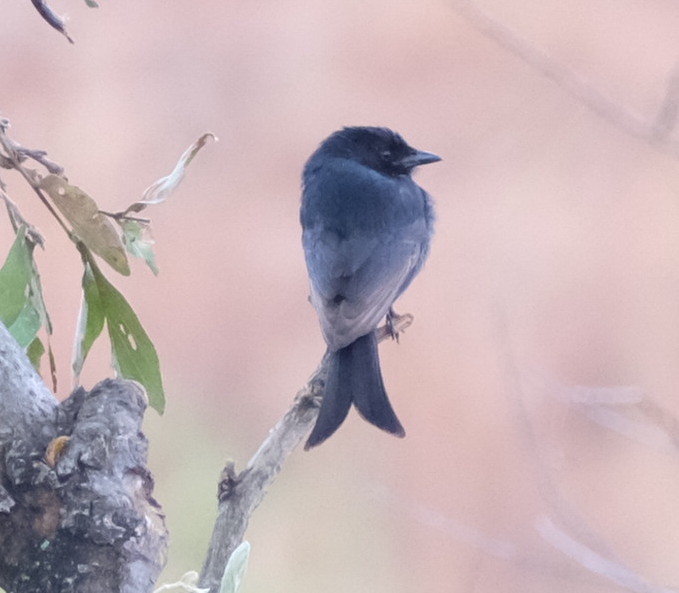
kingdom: Animalia
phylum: Chordata
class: Aves
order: Passeriformes
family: Dicruridae
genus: Dicrurus
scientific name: Dicrurus adsimilis
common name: Fork-tailed drongo
